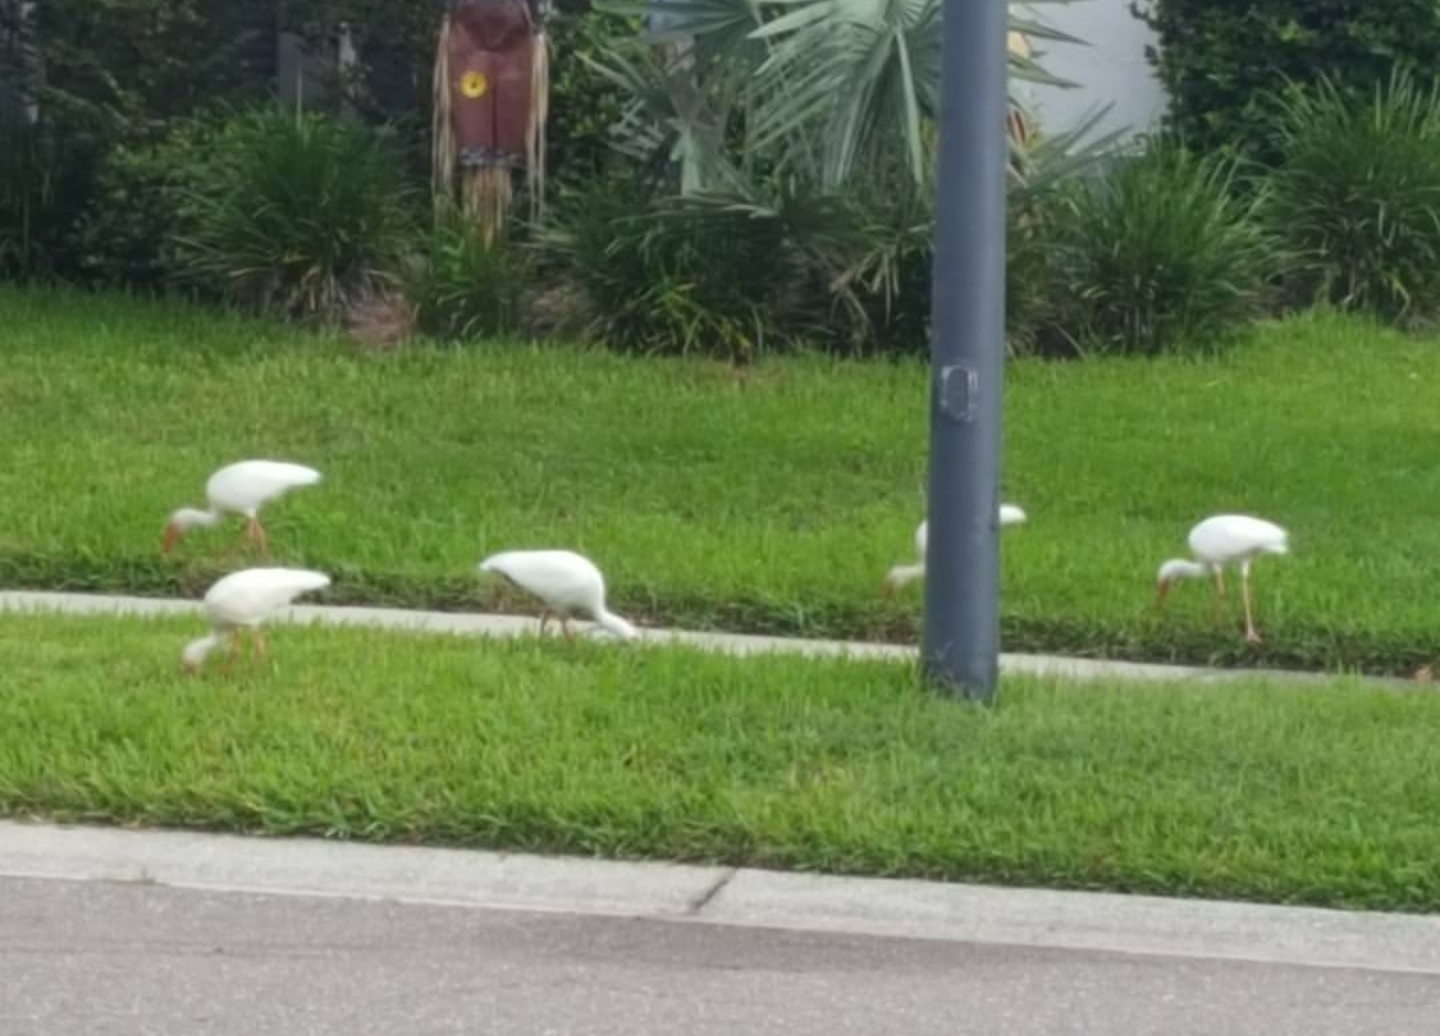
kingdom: Animalia
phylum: Chordata
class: Aves
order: Pelecaniformes
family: Threskiornithidae
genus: Eudocimus
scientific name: Eudocimus albus
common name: White ibis
